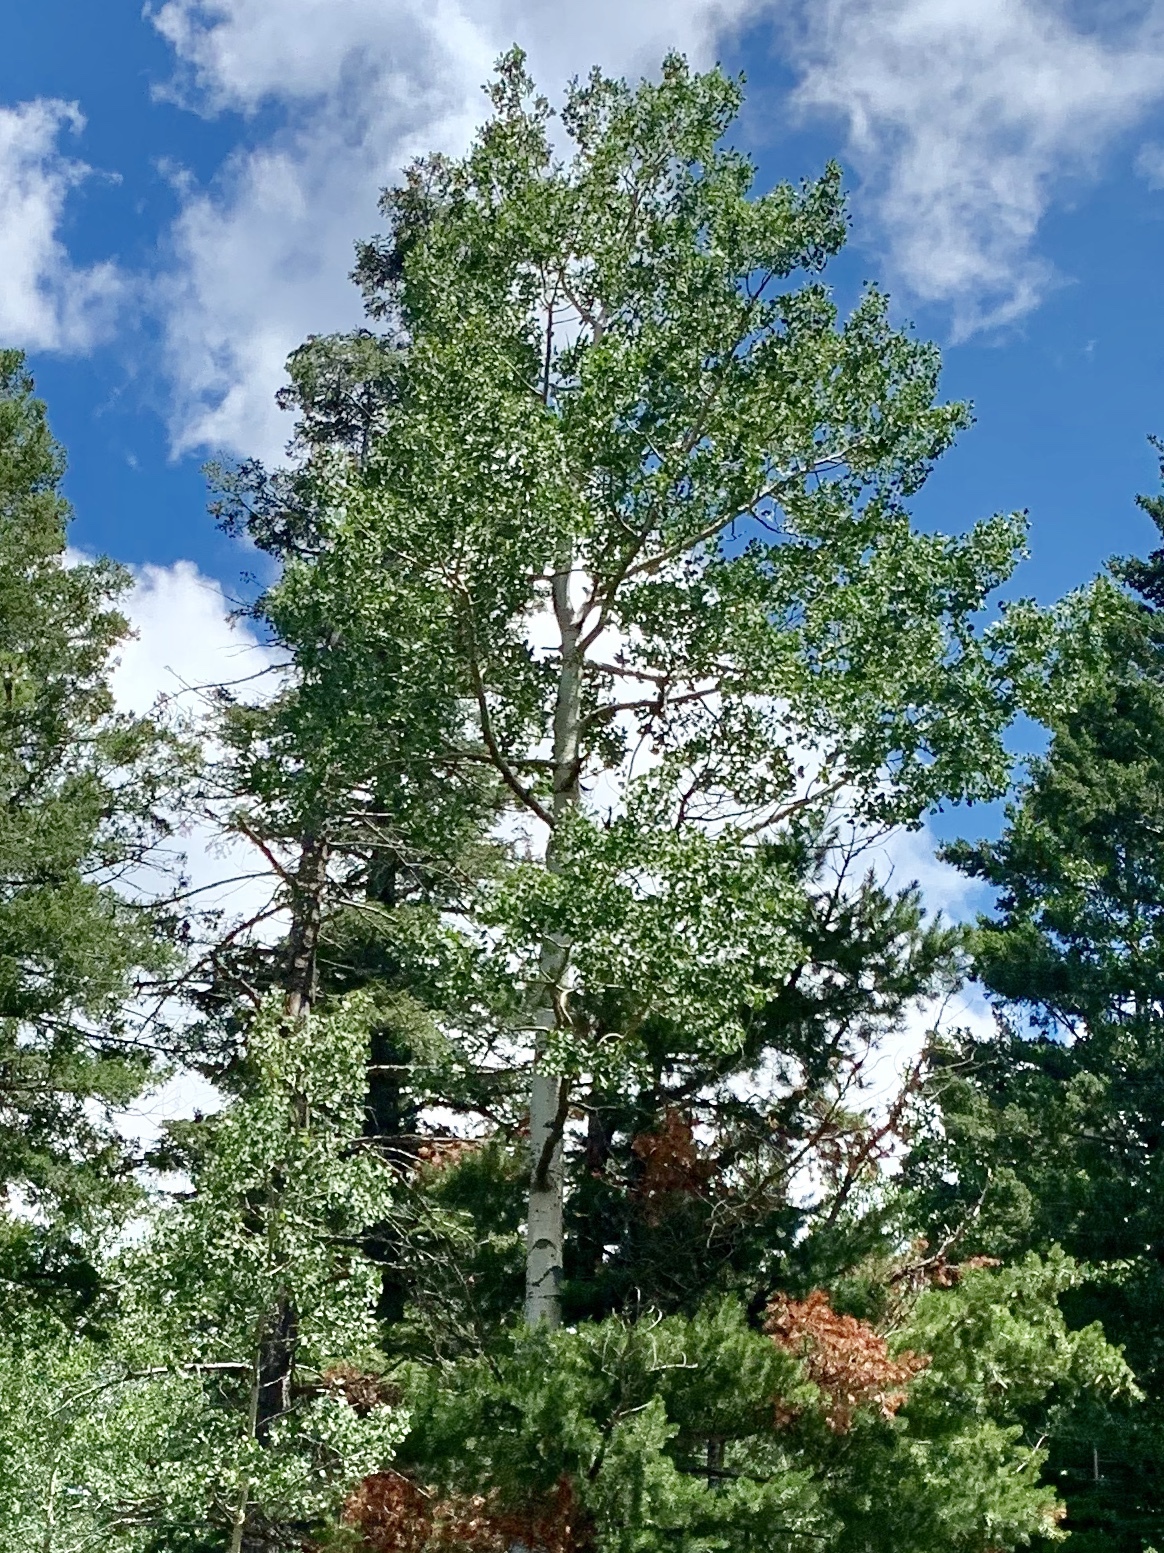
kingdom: Plantae
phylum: Tracheophyta
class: Magnoliopsida
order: Malpighiales
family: Salicaceae
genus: Populus
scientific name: Populus tremuloides
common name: Quaking aspen
